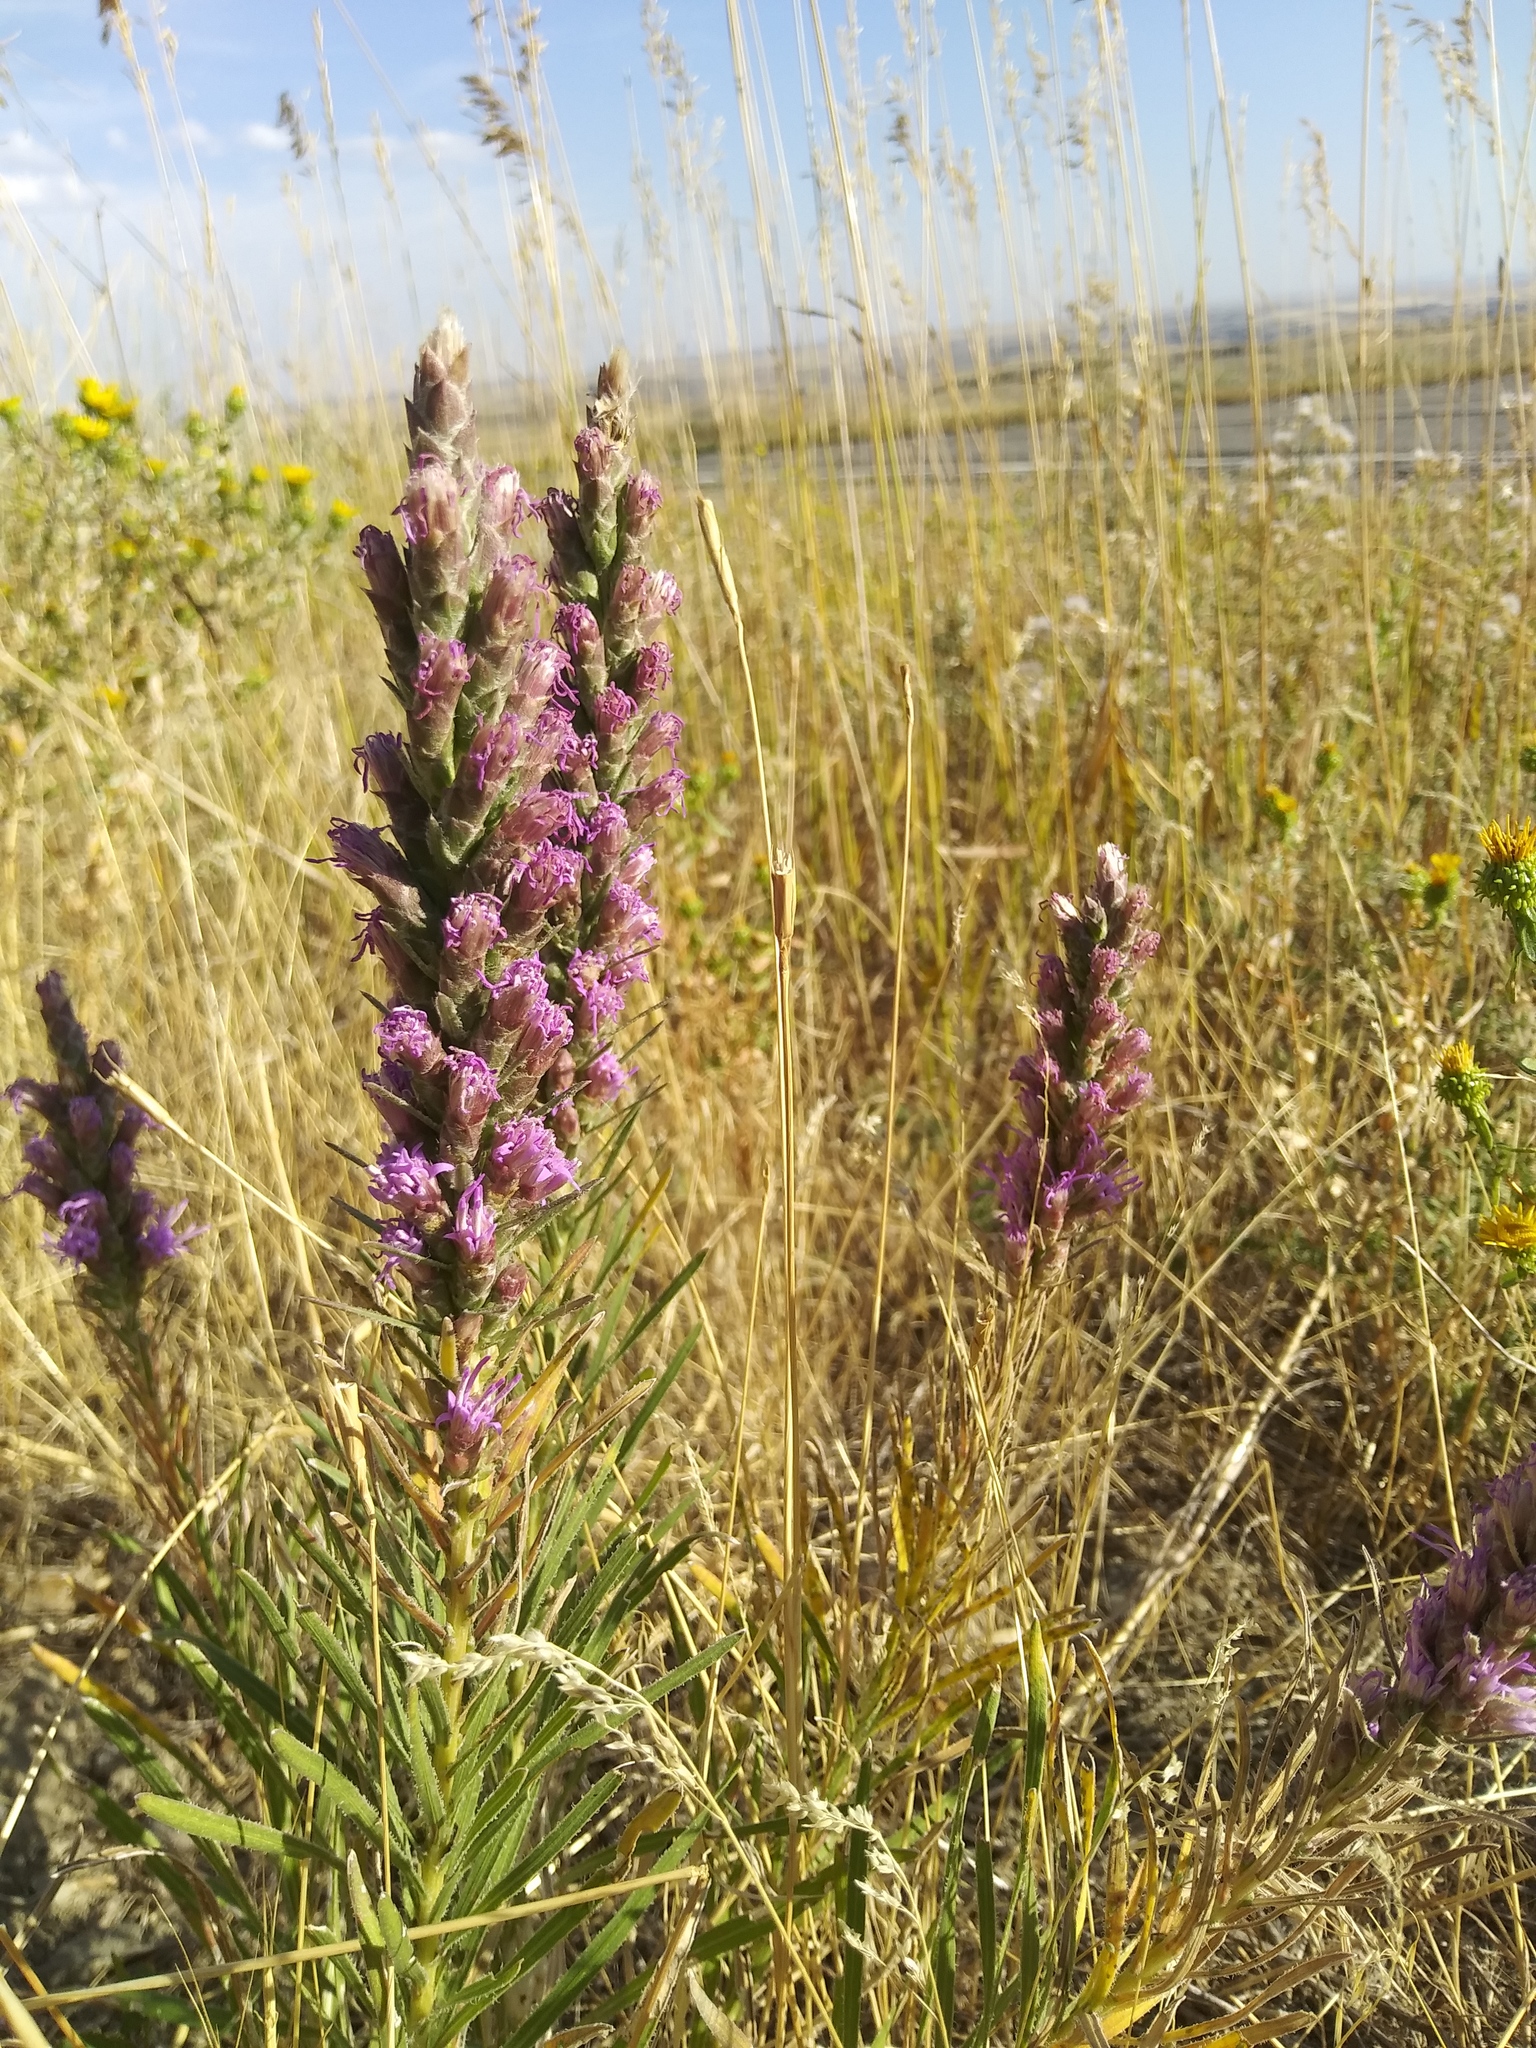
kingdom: Plantae
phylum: Tracheophyta
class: Magnoliopsida
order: Asterales
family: Asteraceae
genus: Liatris
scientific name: Liatris punctata
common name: Dotted gayfeather
